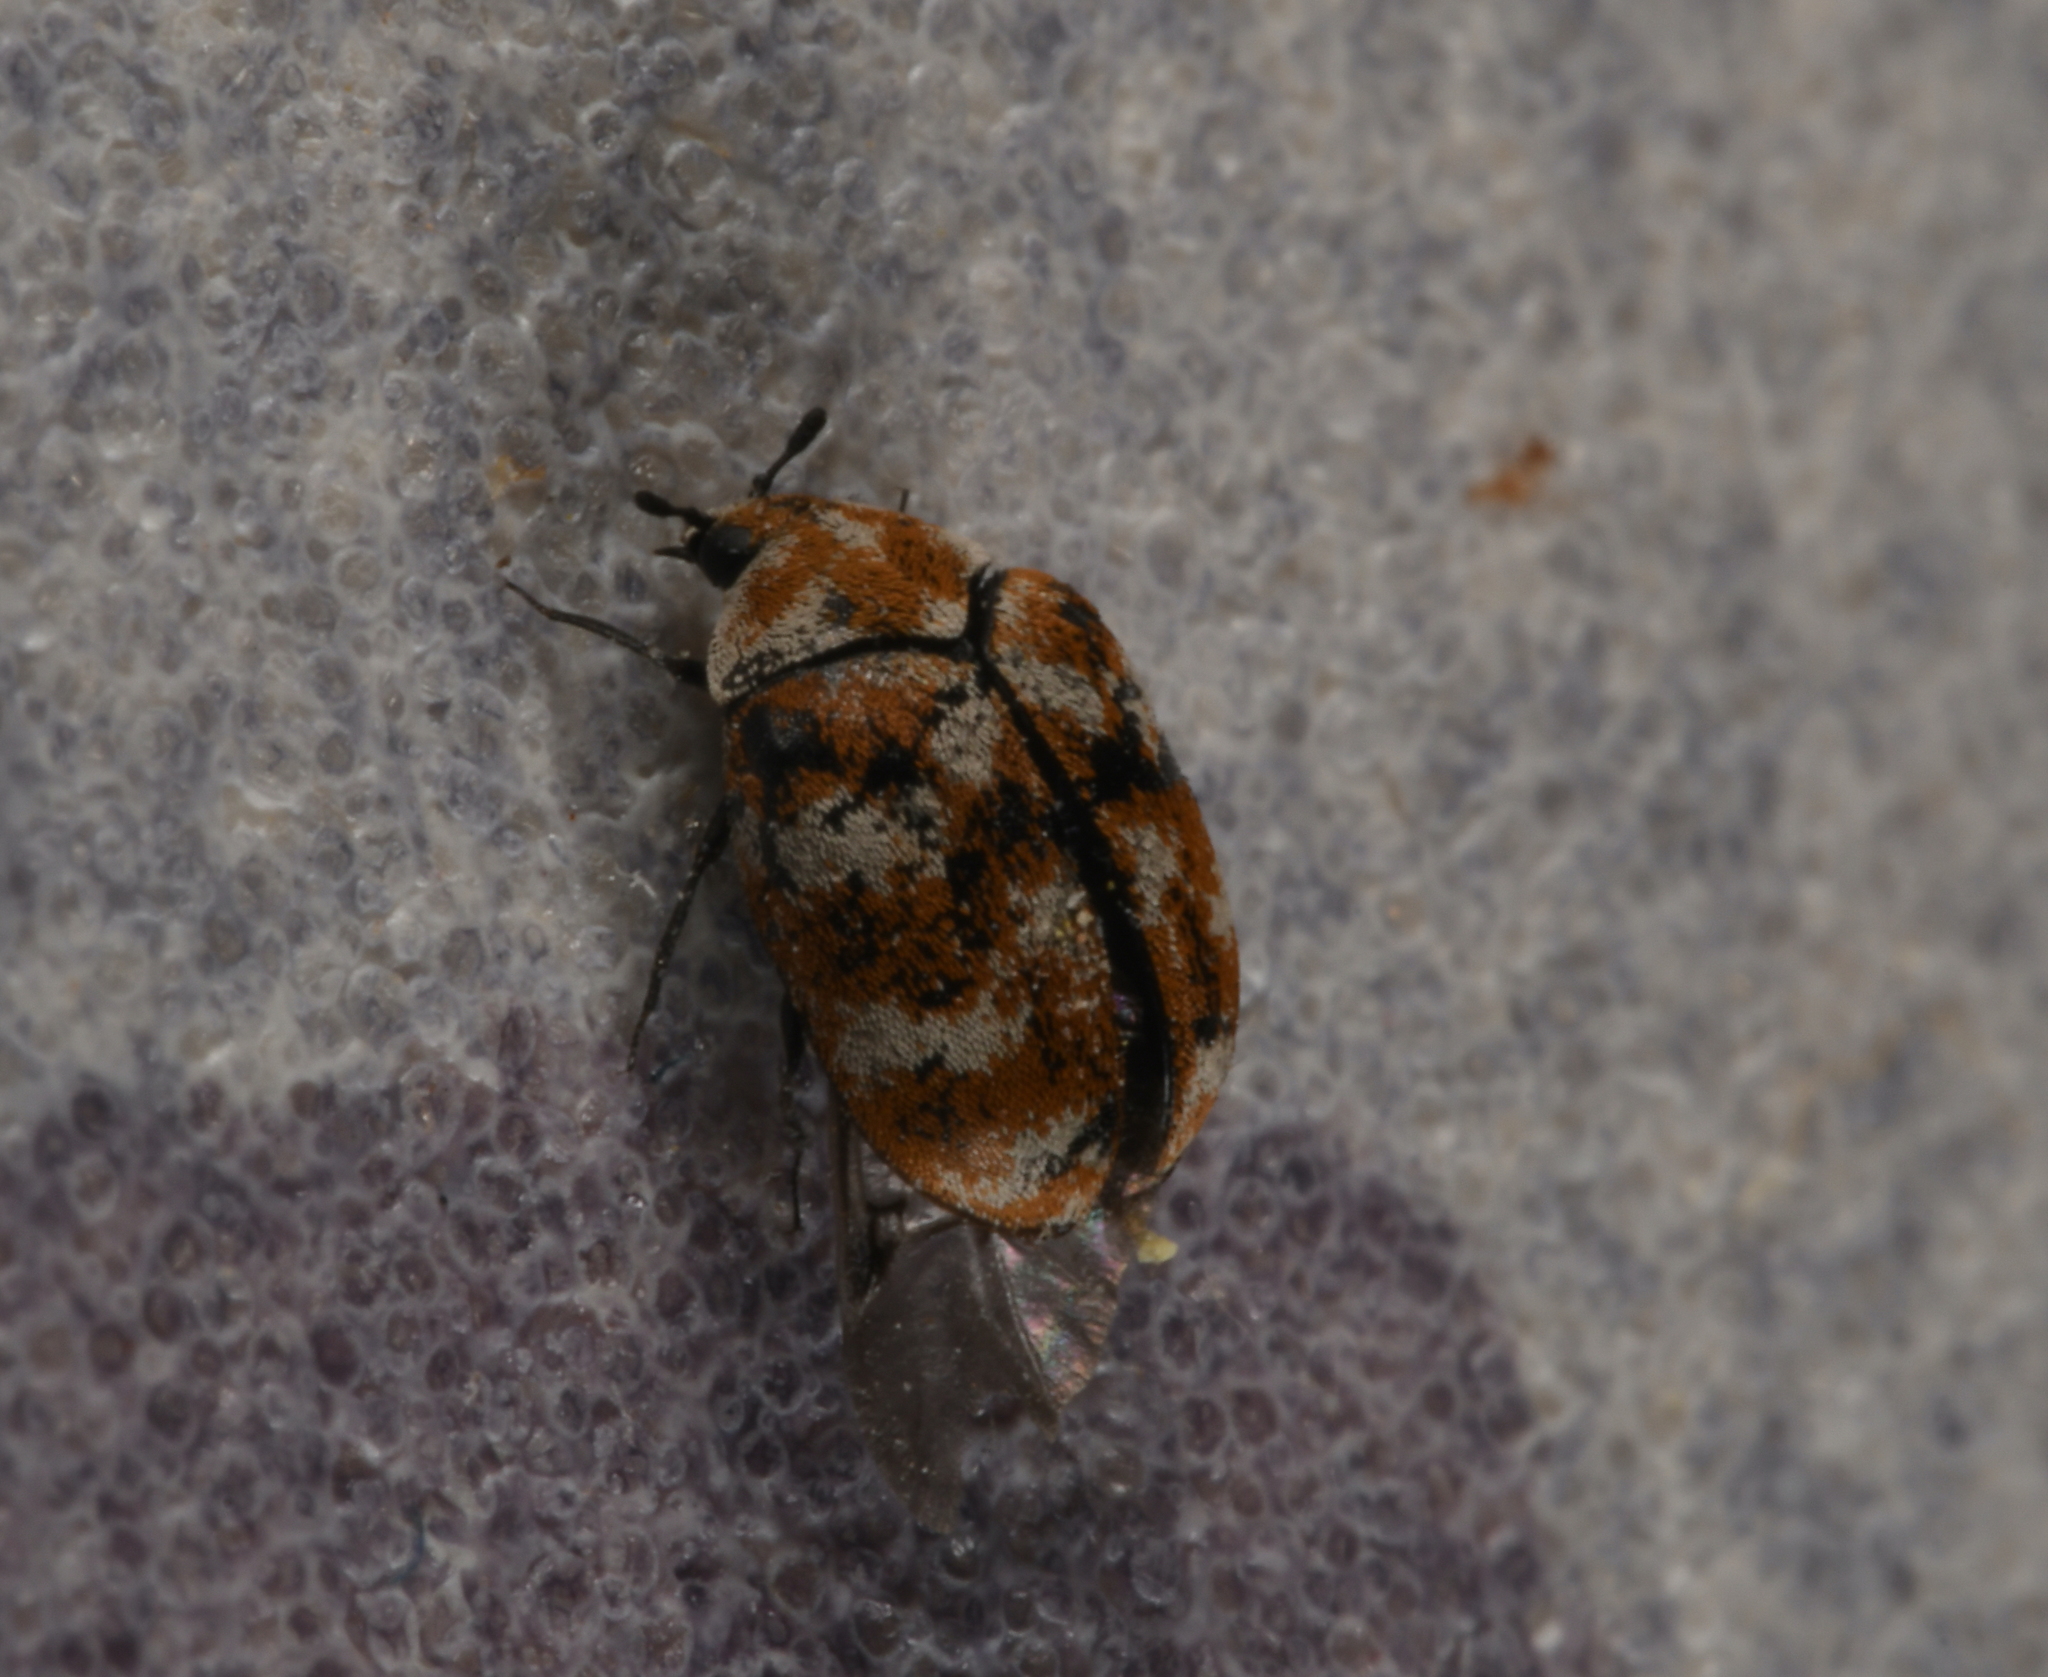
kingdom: Animalia
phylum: Arthropoda
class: Insecta
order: Coleoptera
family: Dermestidae
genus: Anthrenus
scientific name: Anthrenus verbasci
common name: Varied carpet beetle
